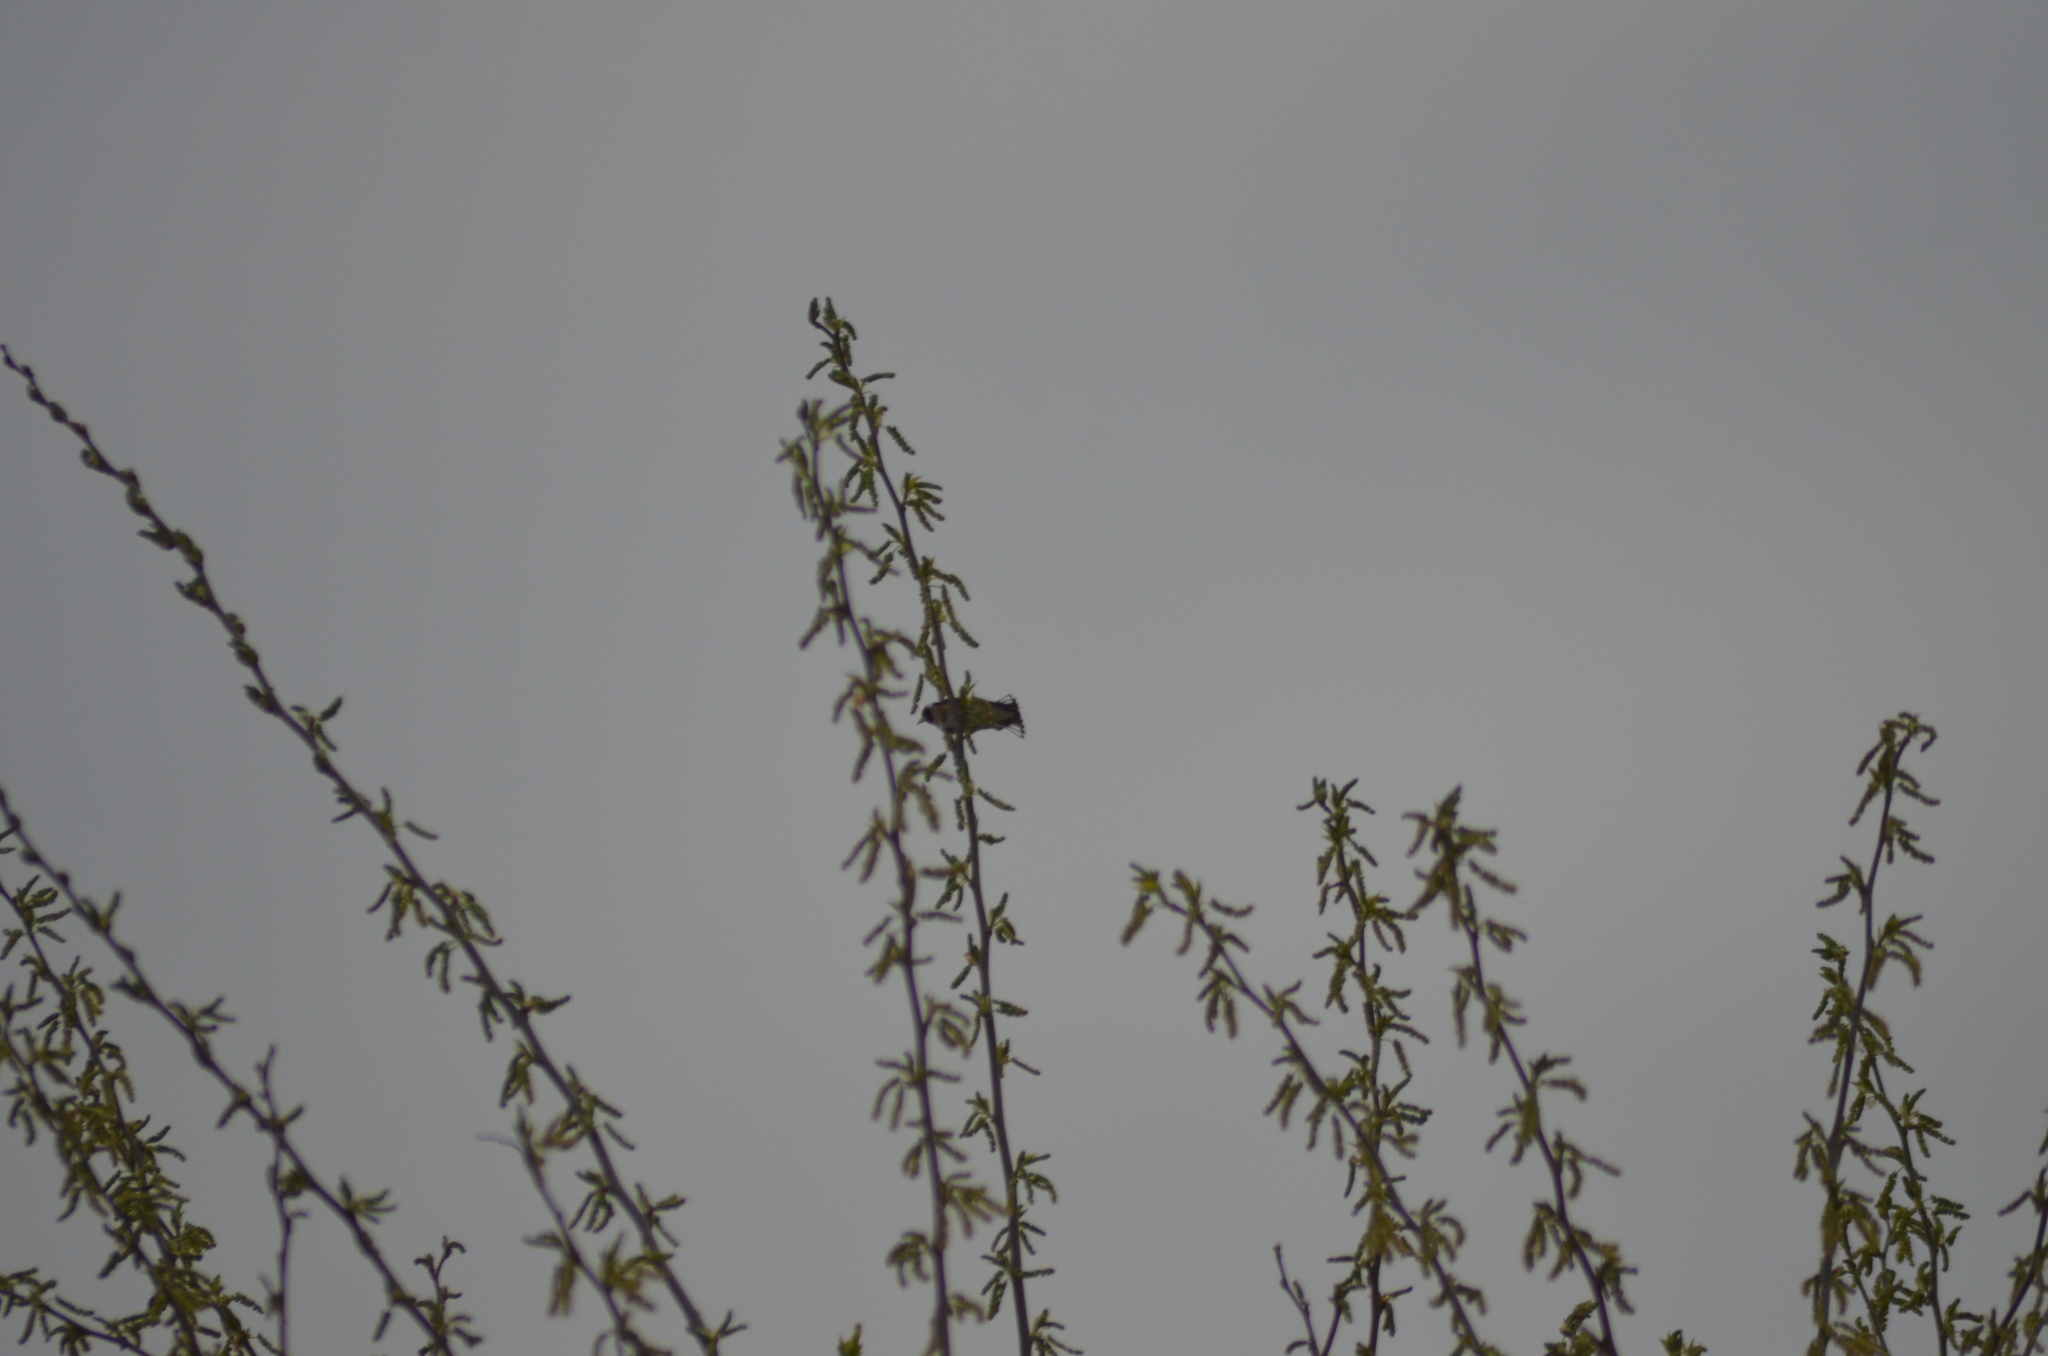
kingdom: Animalia
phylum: Chordata
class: Aves
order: Passeriformes
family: Fringillidae
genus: Carduelis
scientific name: Carduelis carduelis
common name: European goldfinch
